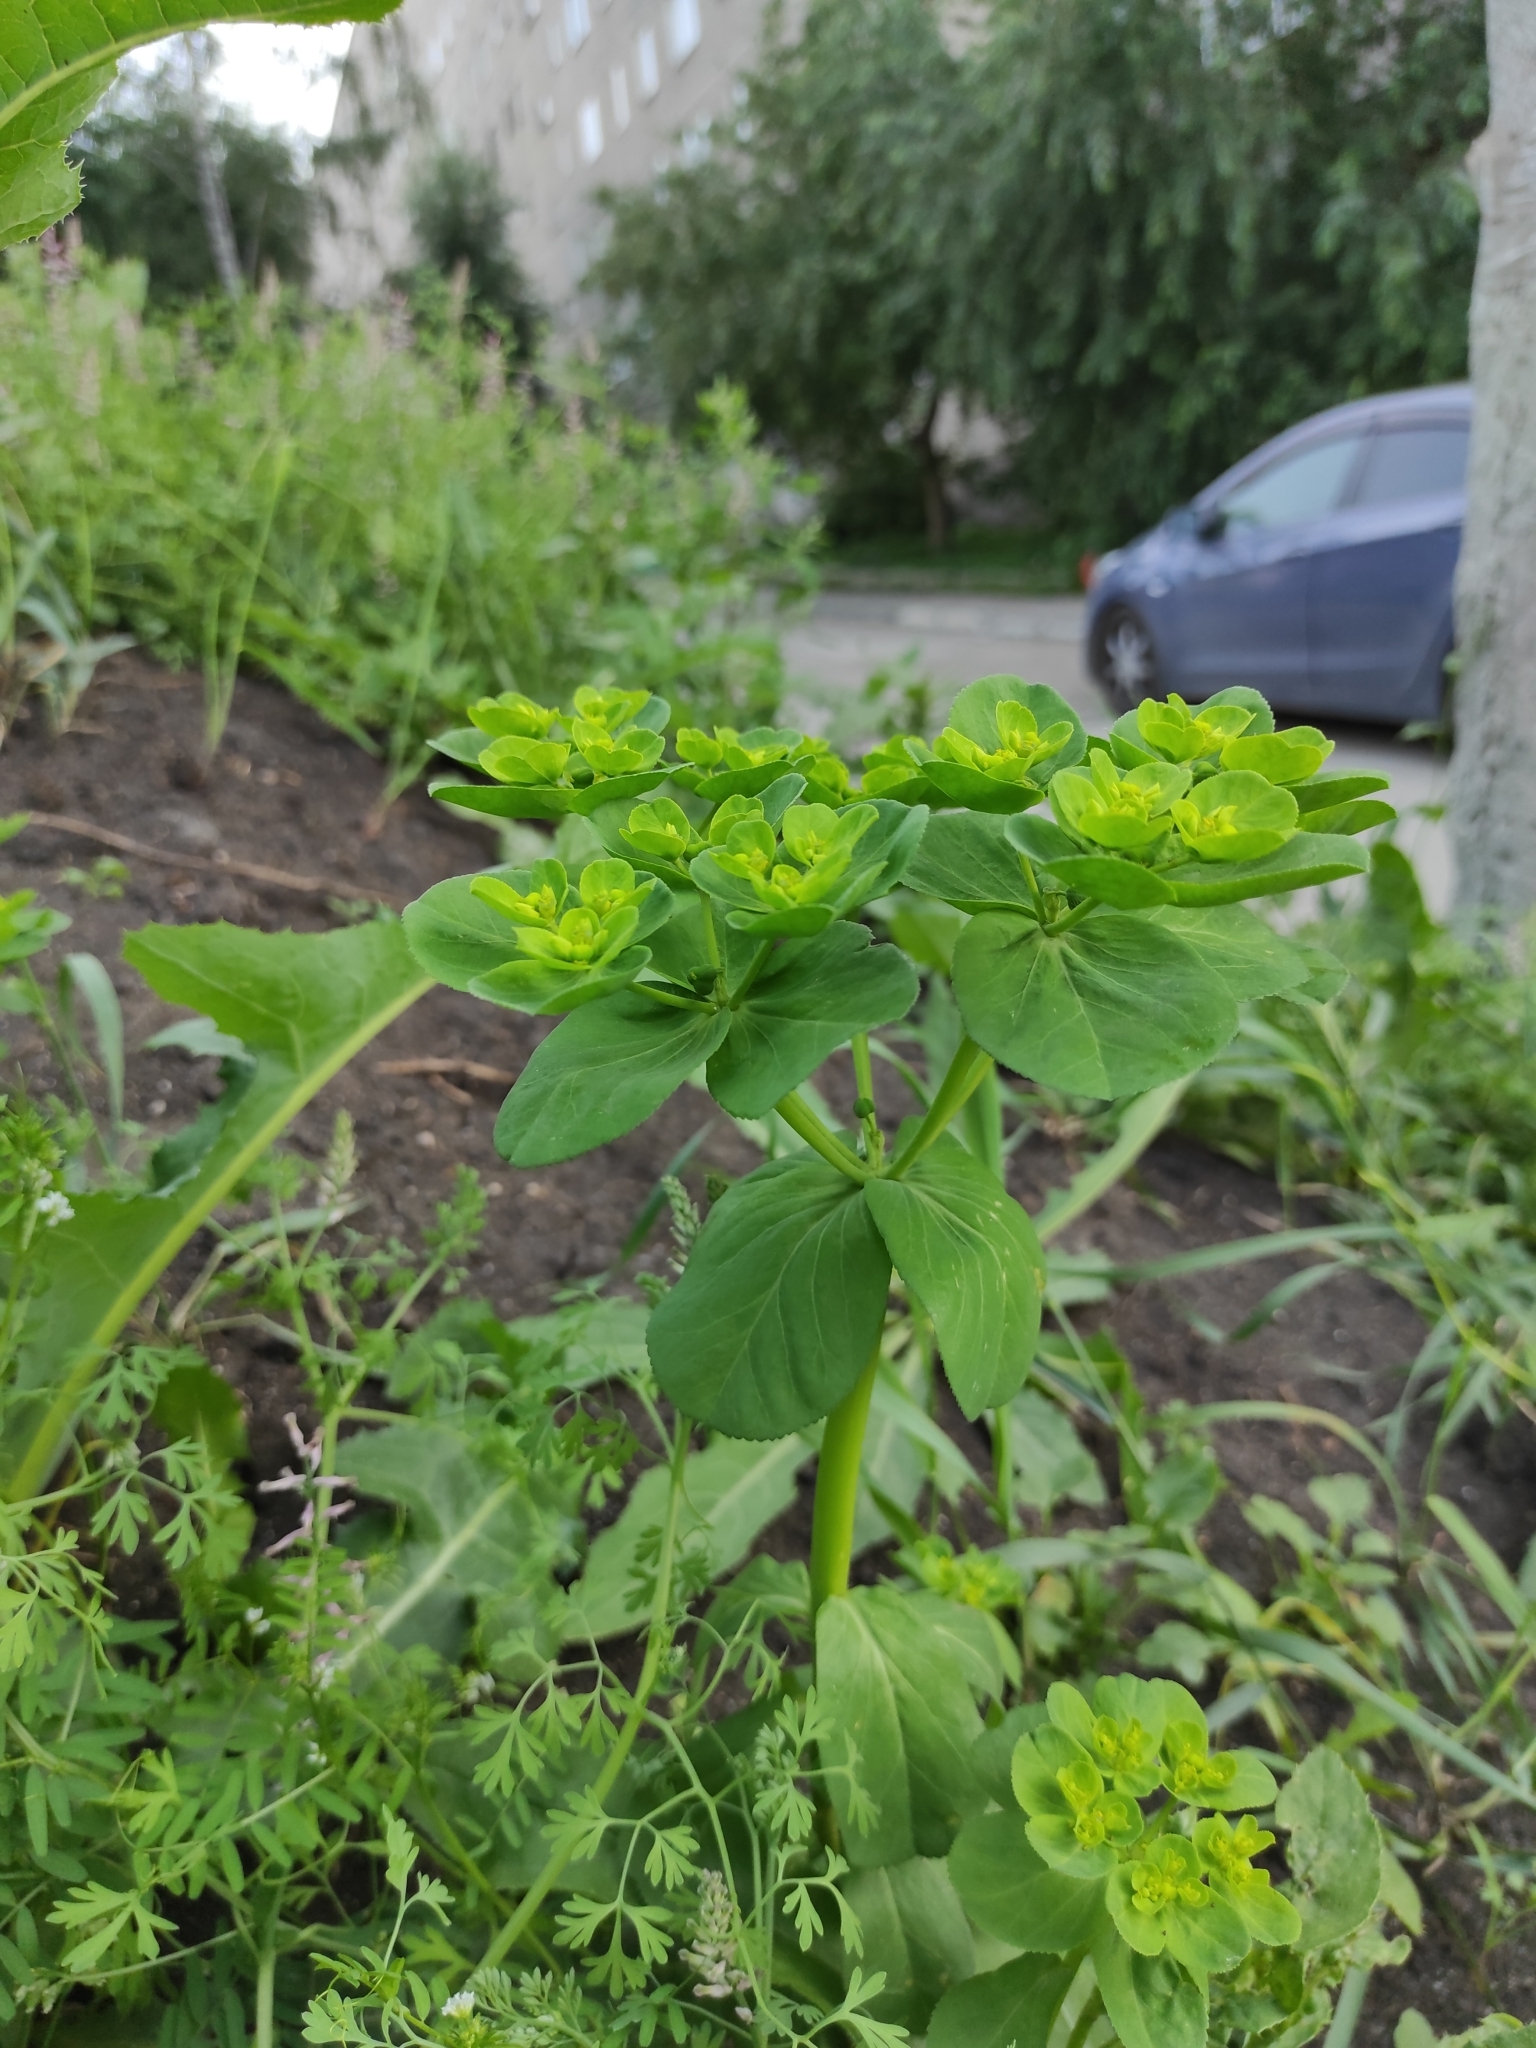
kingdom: Plantae
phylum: Tracheophyta
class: Magnoliopsida
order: Malpighiales
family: Euphorbiaceae
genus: Euphorbia
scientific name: Euphorbia helioscopia
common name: Sun spurge
